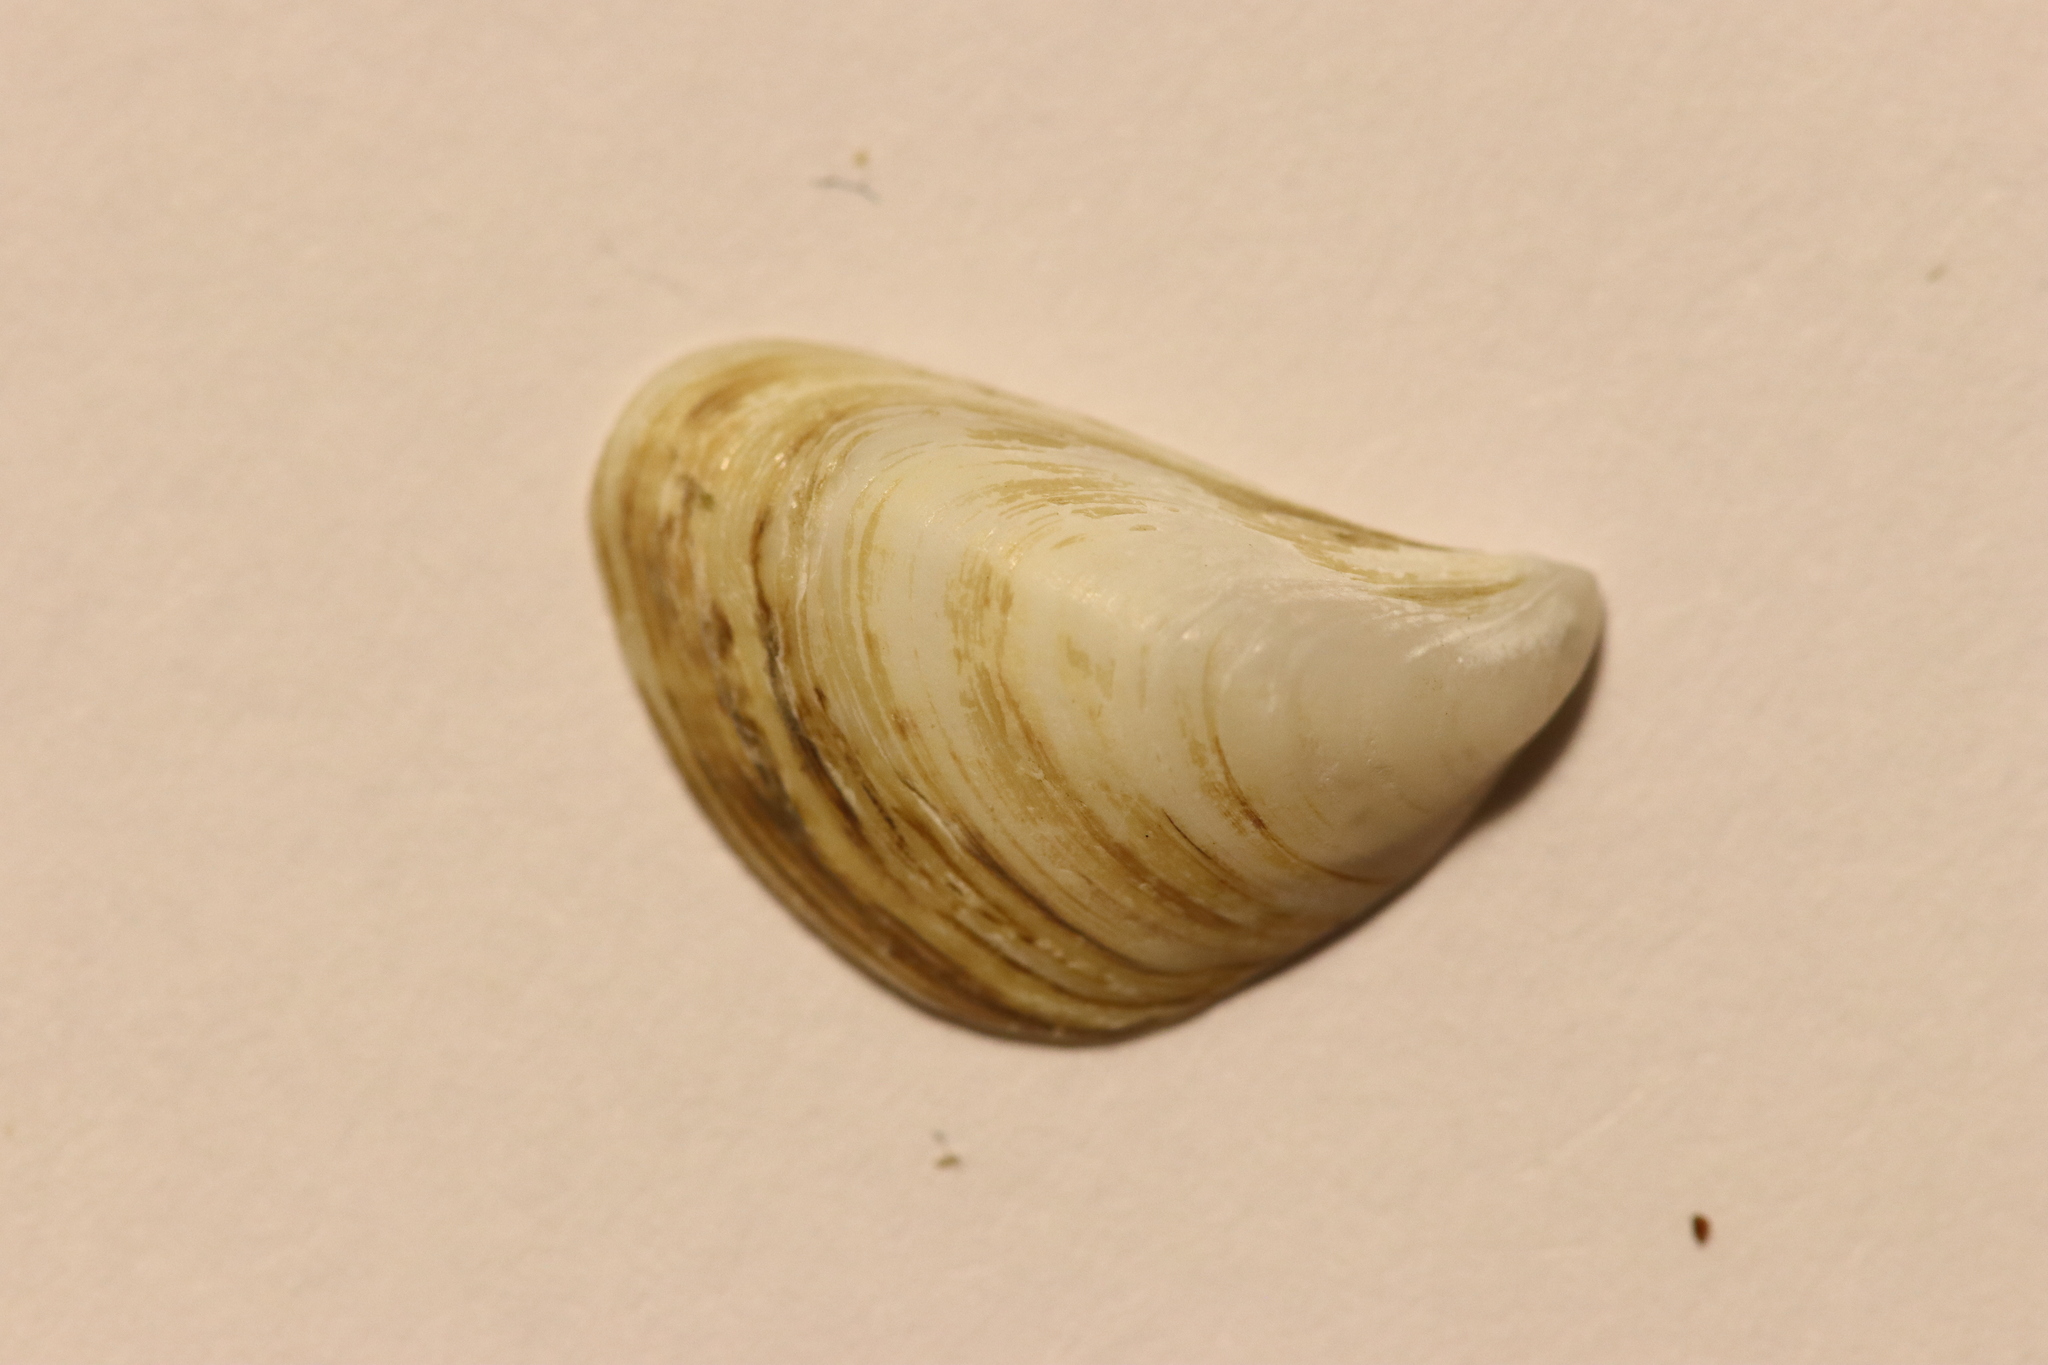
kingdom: Animalia
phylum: Mollusca
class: Bivalvia
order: Myida
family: Dreissenidae
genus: Dreissena
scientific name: Dreissena bugensis
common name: Quagga mussel
